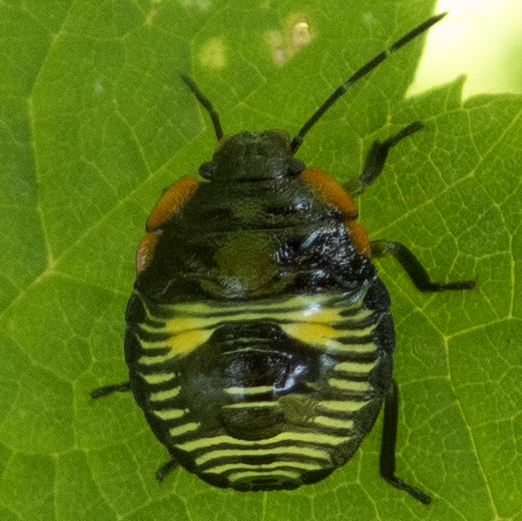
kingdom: Animalia
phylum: Arthropoda
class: Insecta
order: Hemiptera
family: Pentatomidae
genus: Chinavia
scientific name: Chinavia hilaris
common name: Green stink bug
